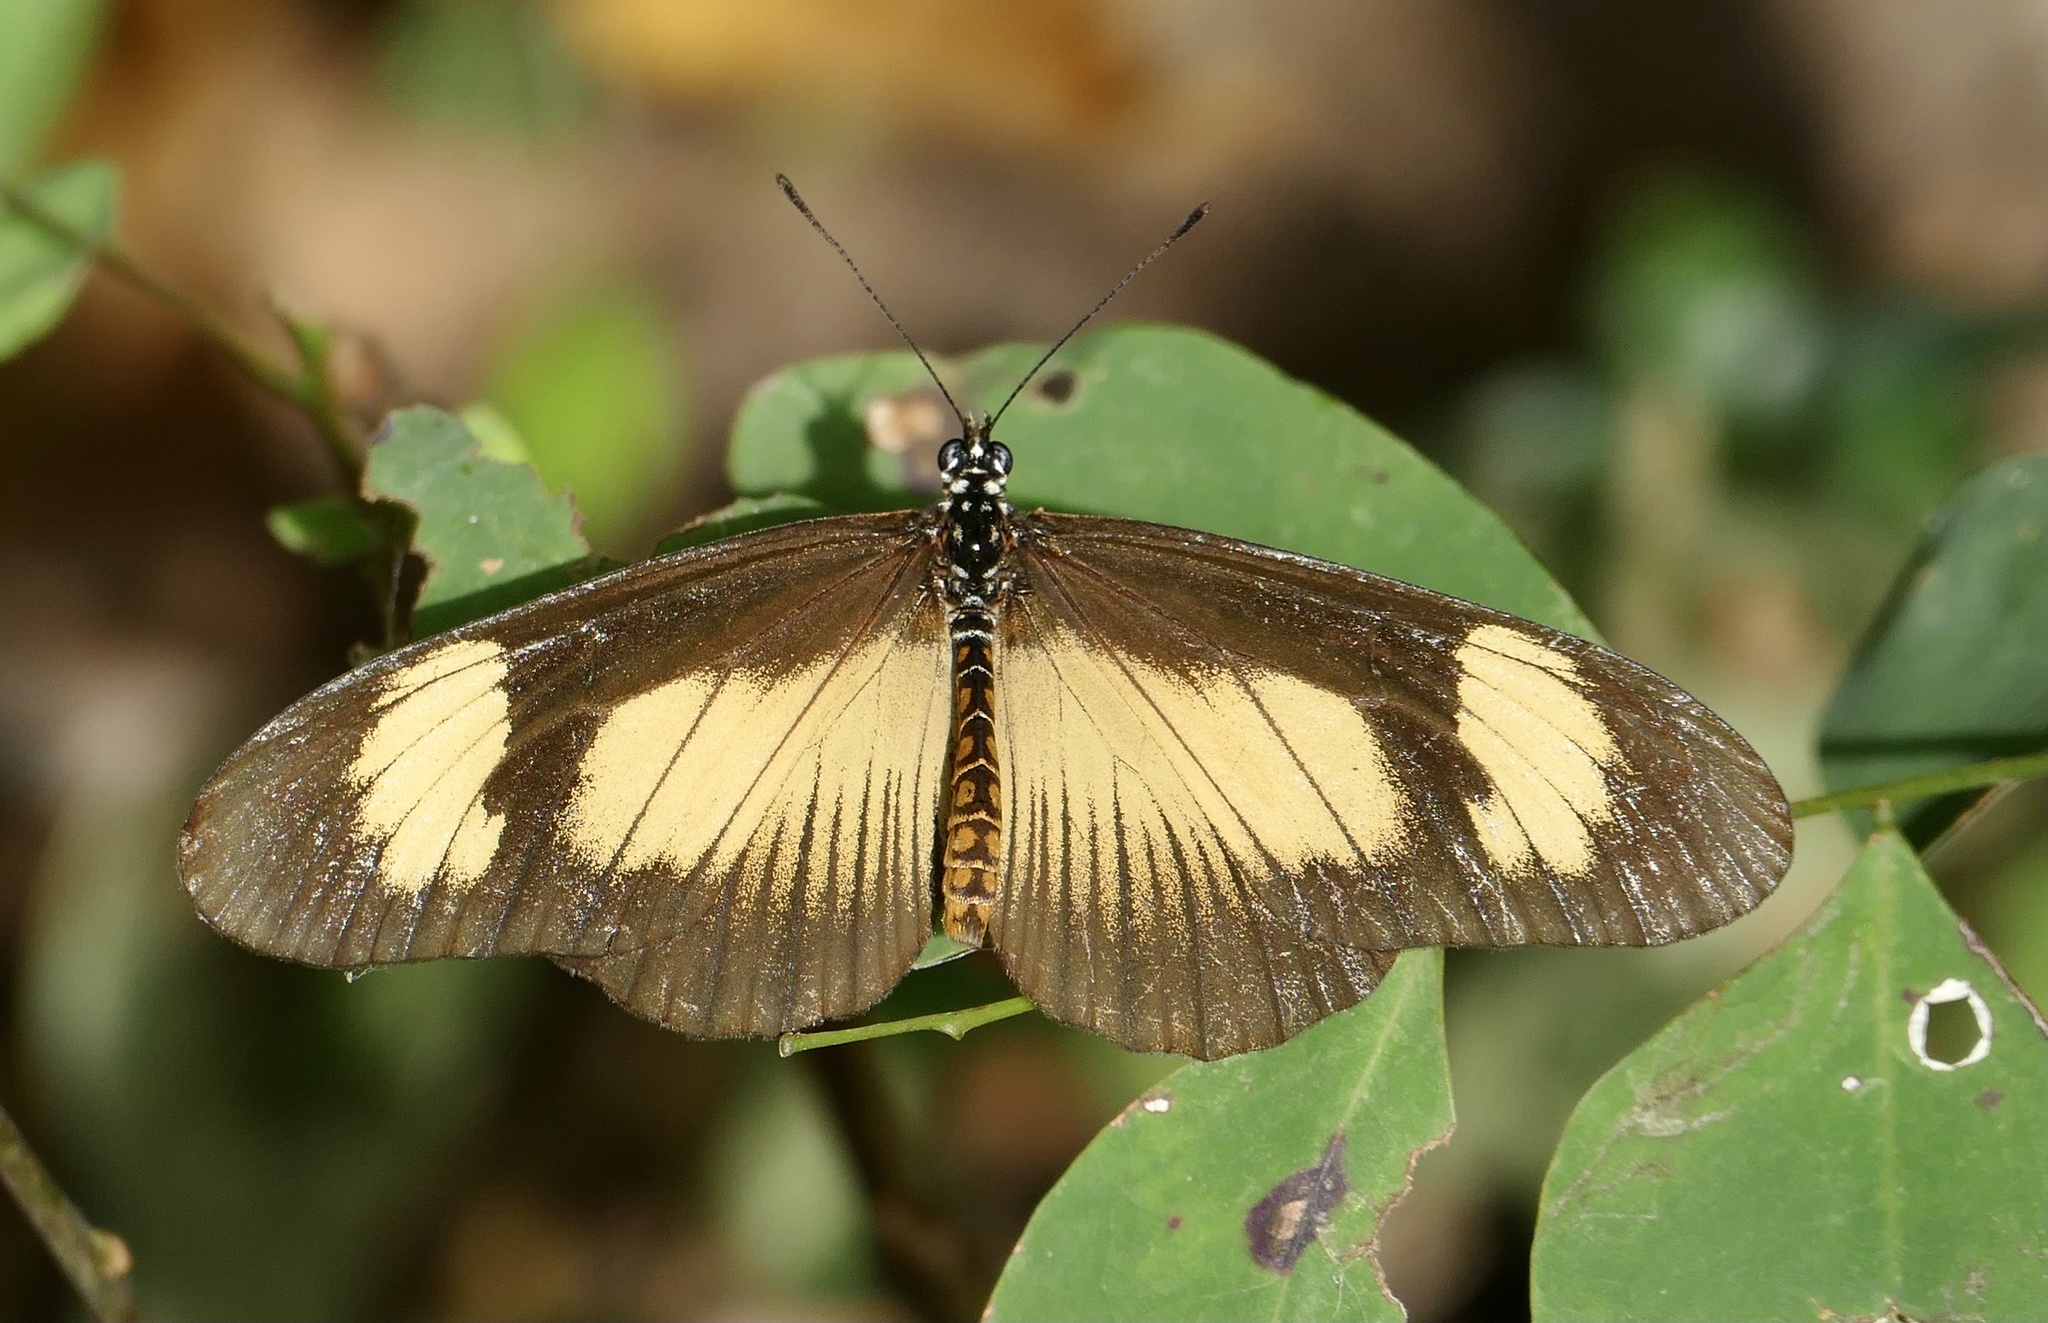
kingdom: Animalia
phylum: Arthropoda
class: Insecta
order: Lepidoptera
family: Nymphalidae
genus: Acraea
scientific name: Acraea
